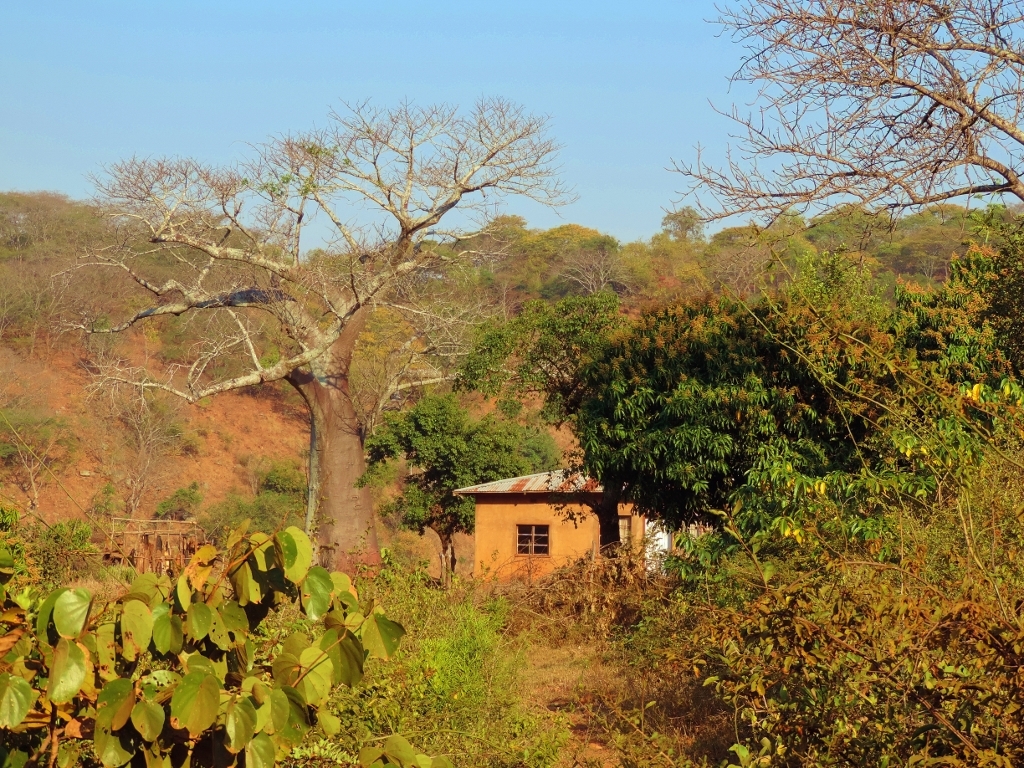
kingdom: Plantae
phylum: Tracheophyta
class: Magnoliopsida
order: Malvales
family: Malvaceae
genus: Adansonia
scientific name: Adansonia digitata
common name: Dead-rat-tree
